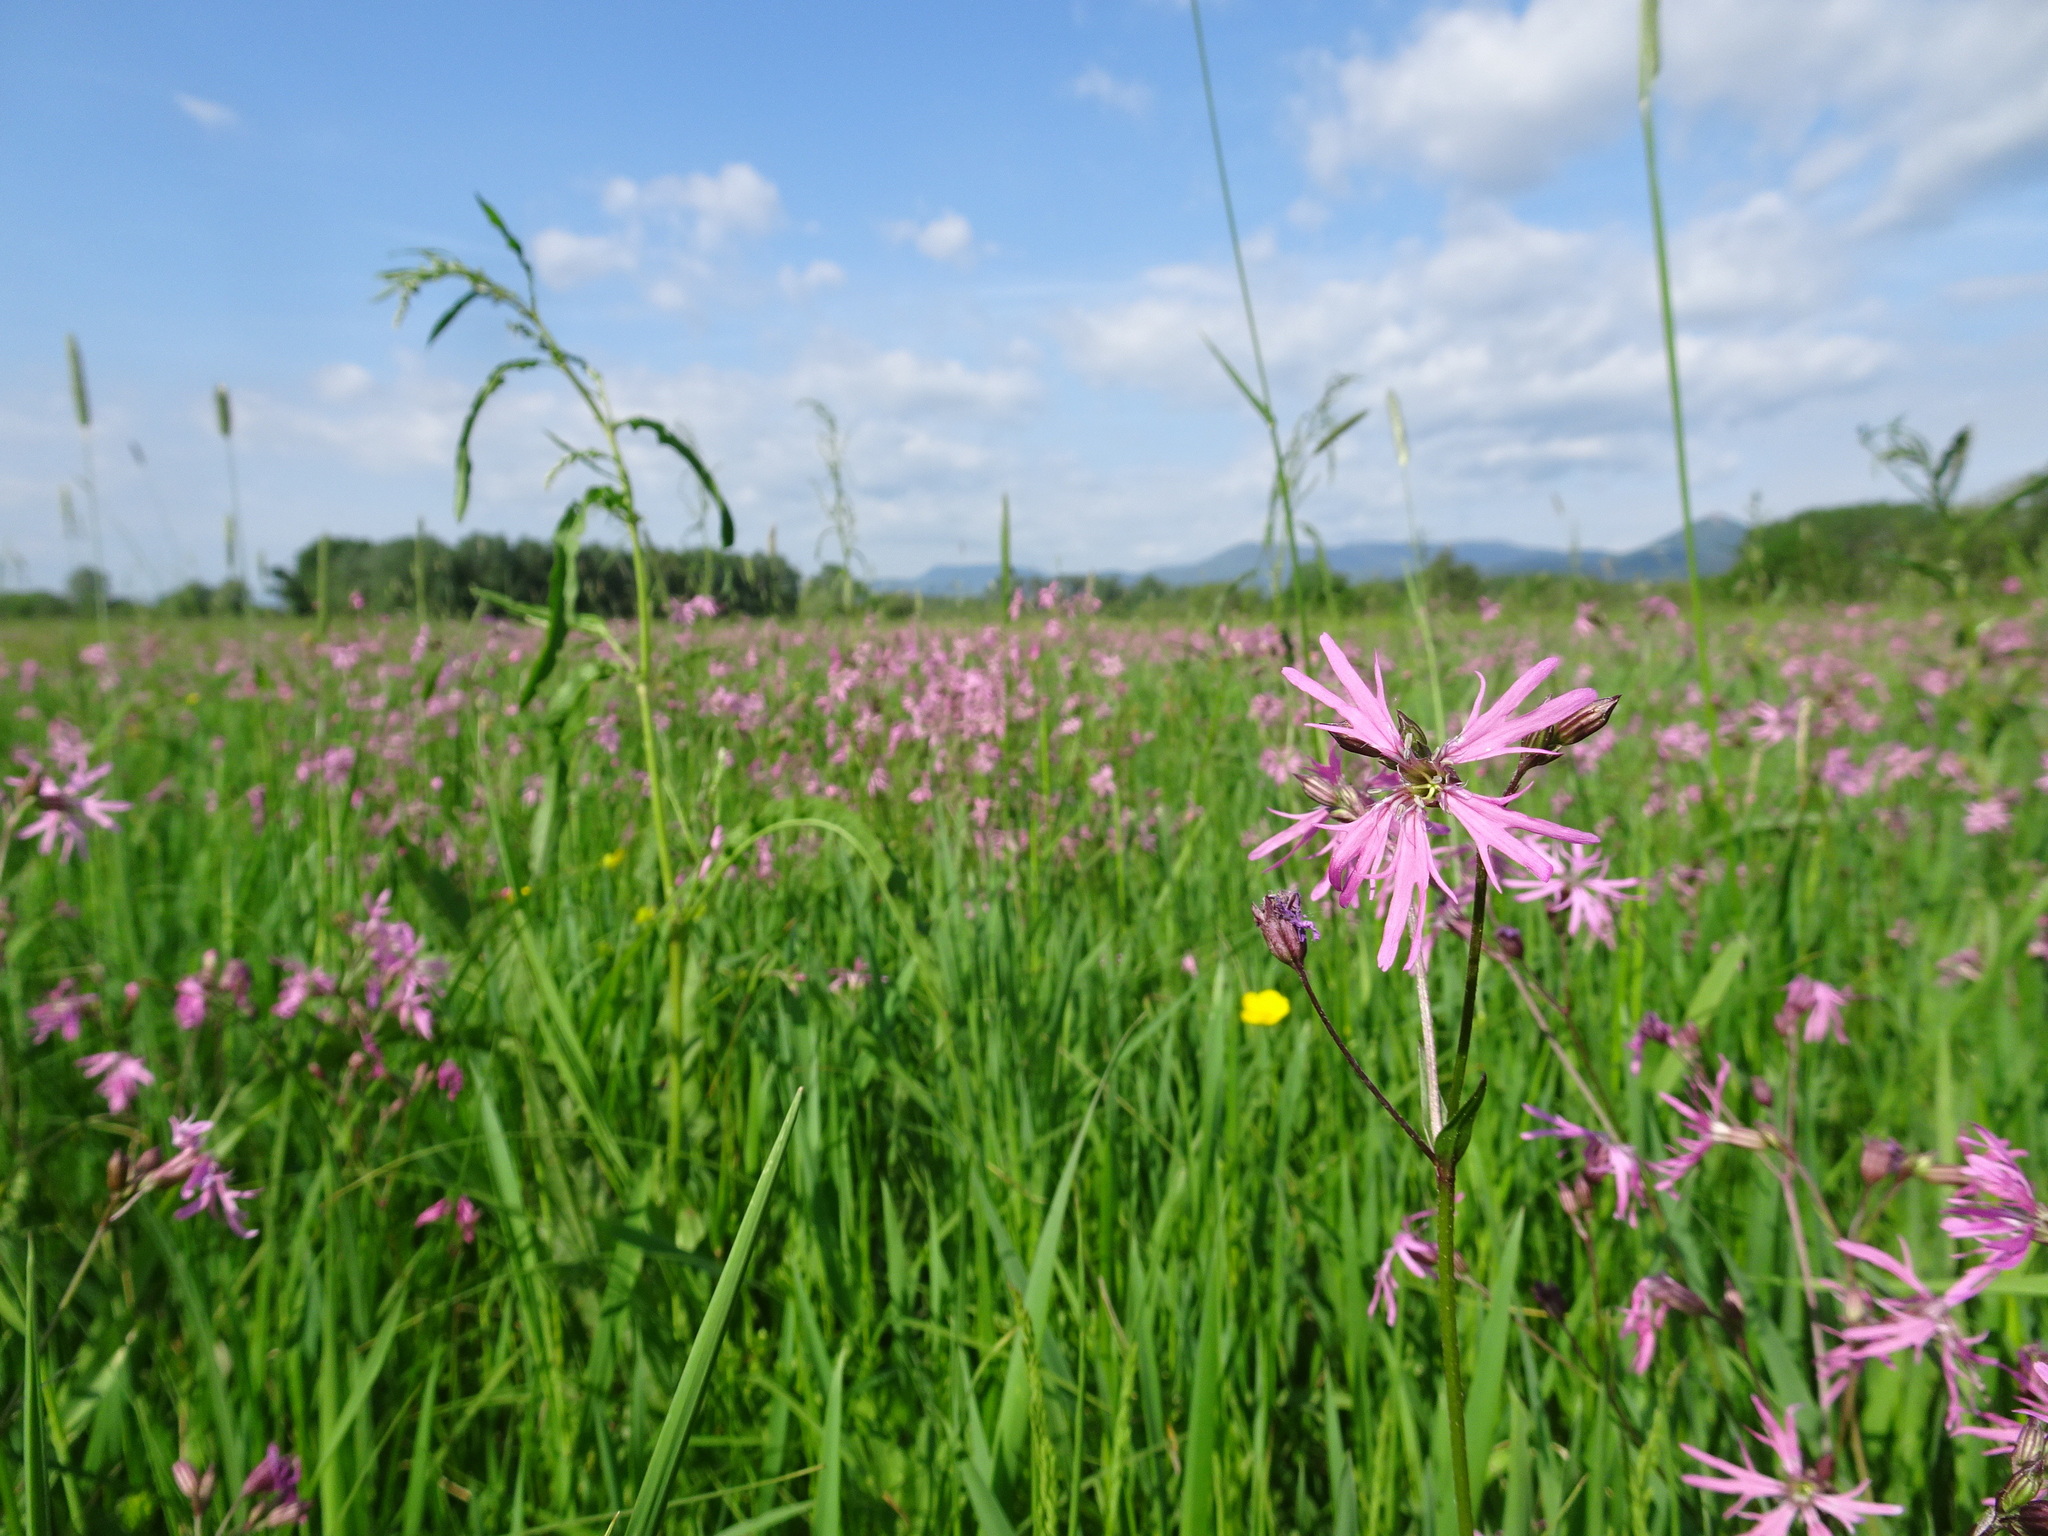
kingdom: Plantae
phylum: Tracheophyta
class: Magnoliopsida
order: Caryophyllales
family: Caryophyllaceae
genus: Silene
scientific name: Silene flos-cuculi
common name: Ragged-robin
